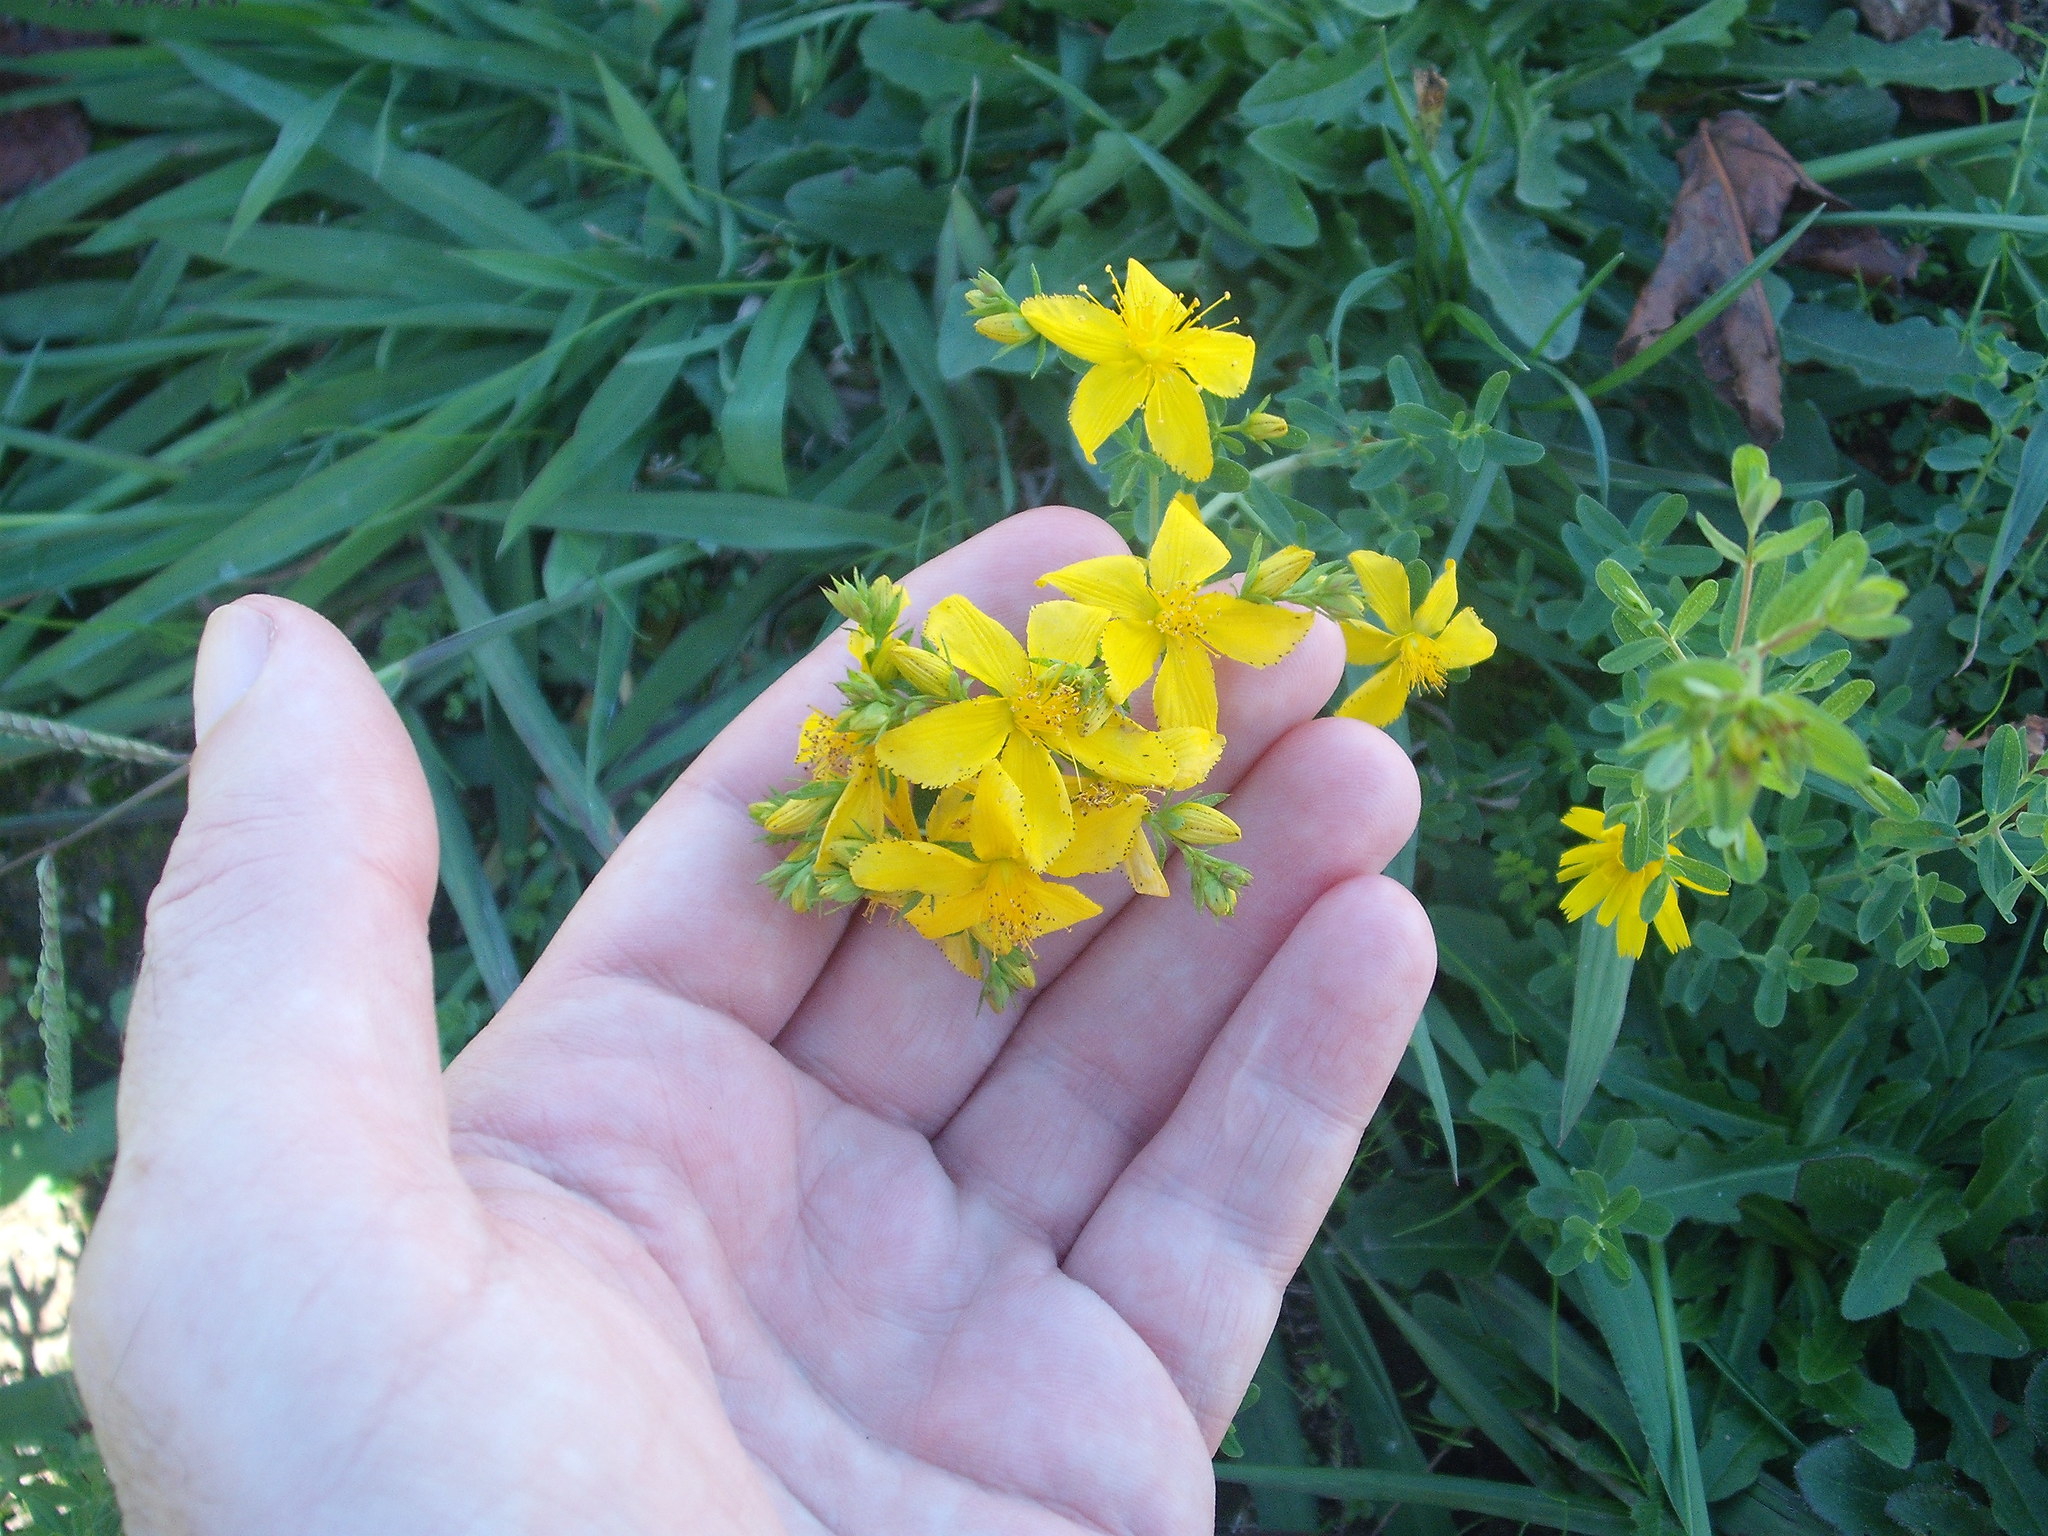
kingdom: Plantae
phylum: Tracheophyta
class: Magnoliopsida
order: Malpighiales
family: Hypericaceae
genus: Hypericum
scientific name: Hypericum perforatum
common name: Common st. johnswort
